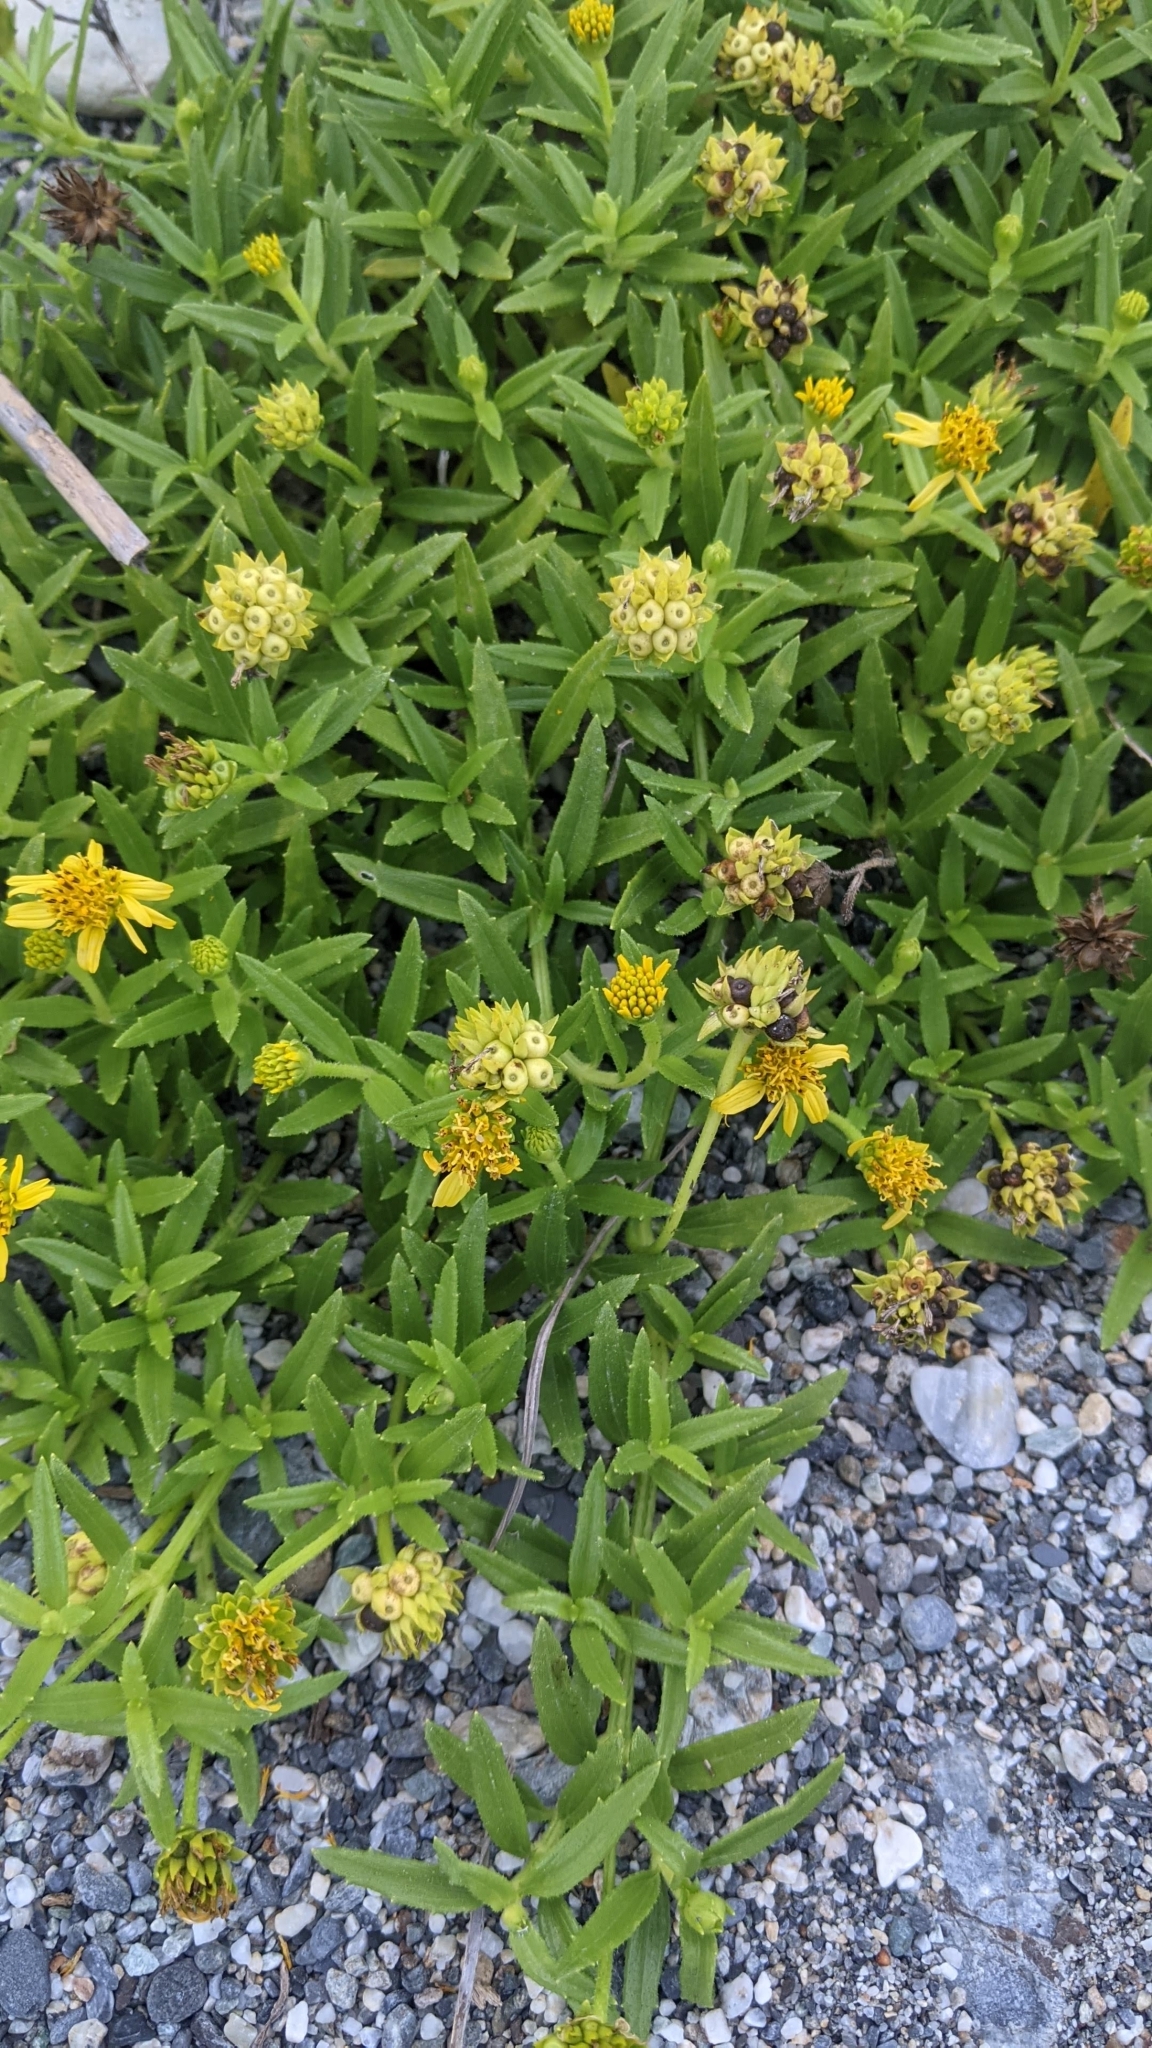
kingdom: Plantae
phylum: Tracheophyta
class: Magnoliopsida
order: Asterales
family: Asteraceae
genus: Melanthera
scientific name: Melanthera prostrata
